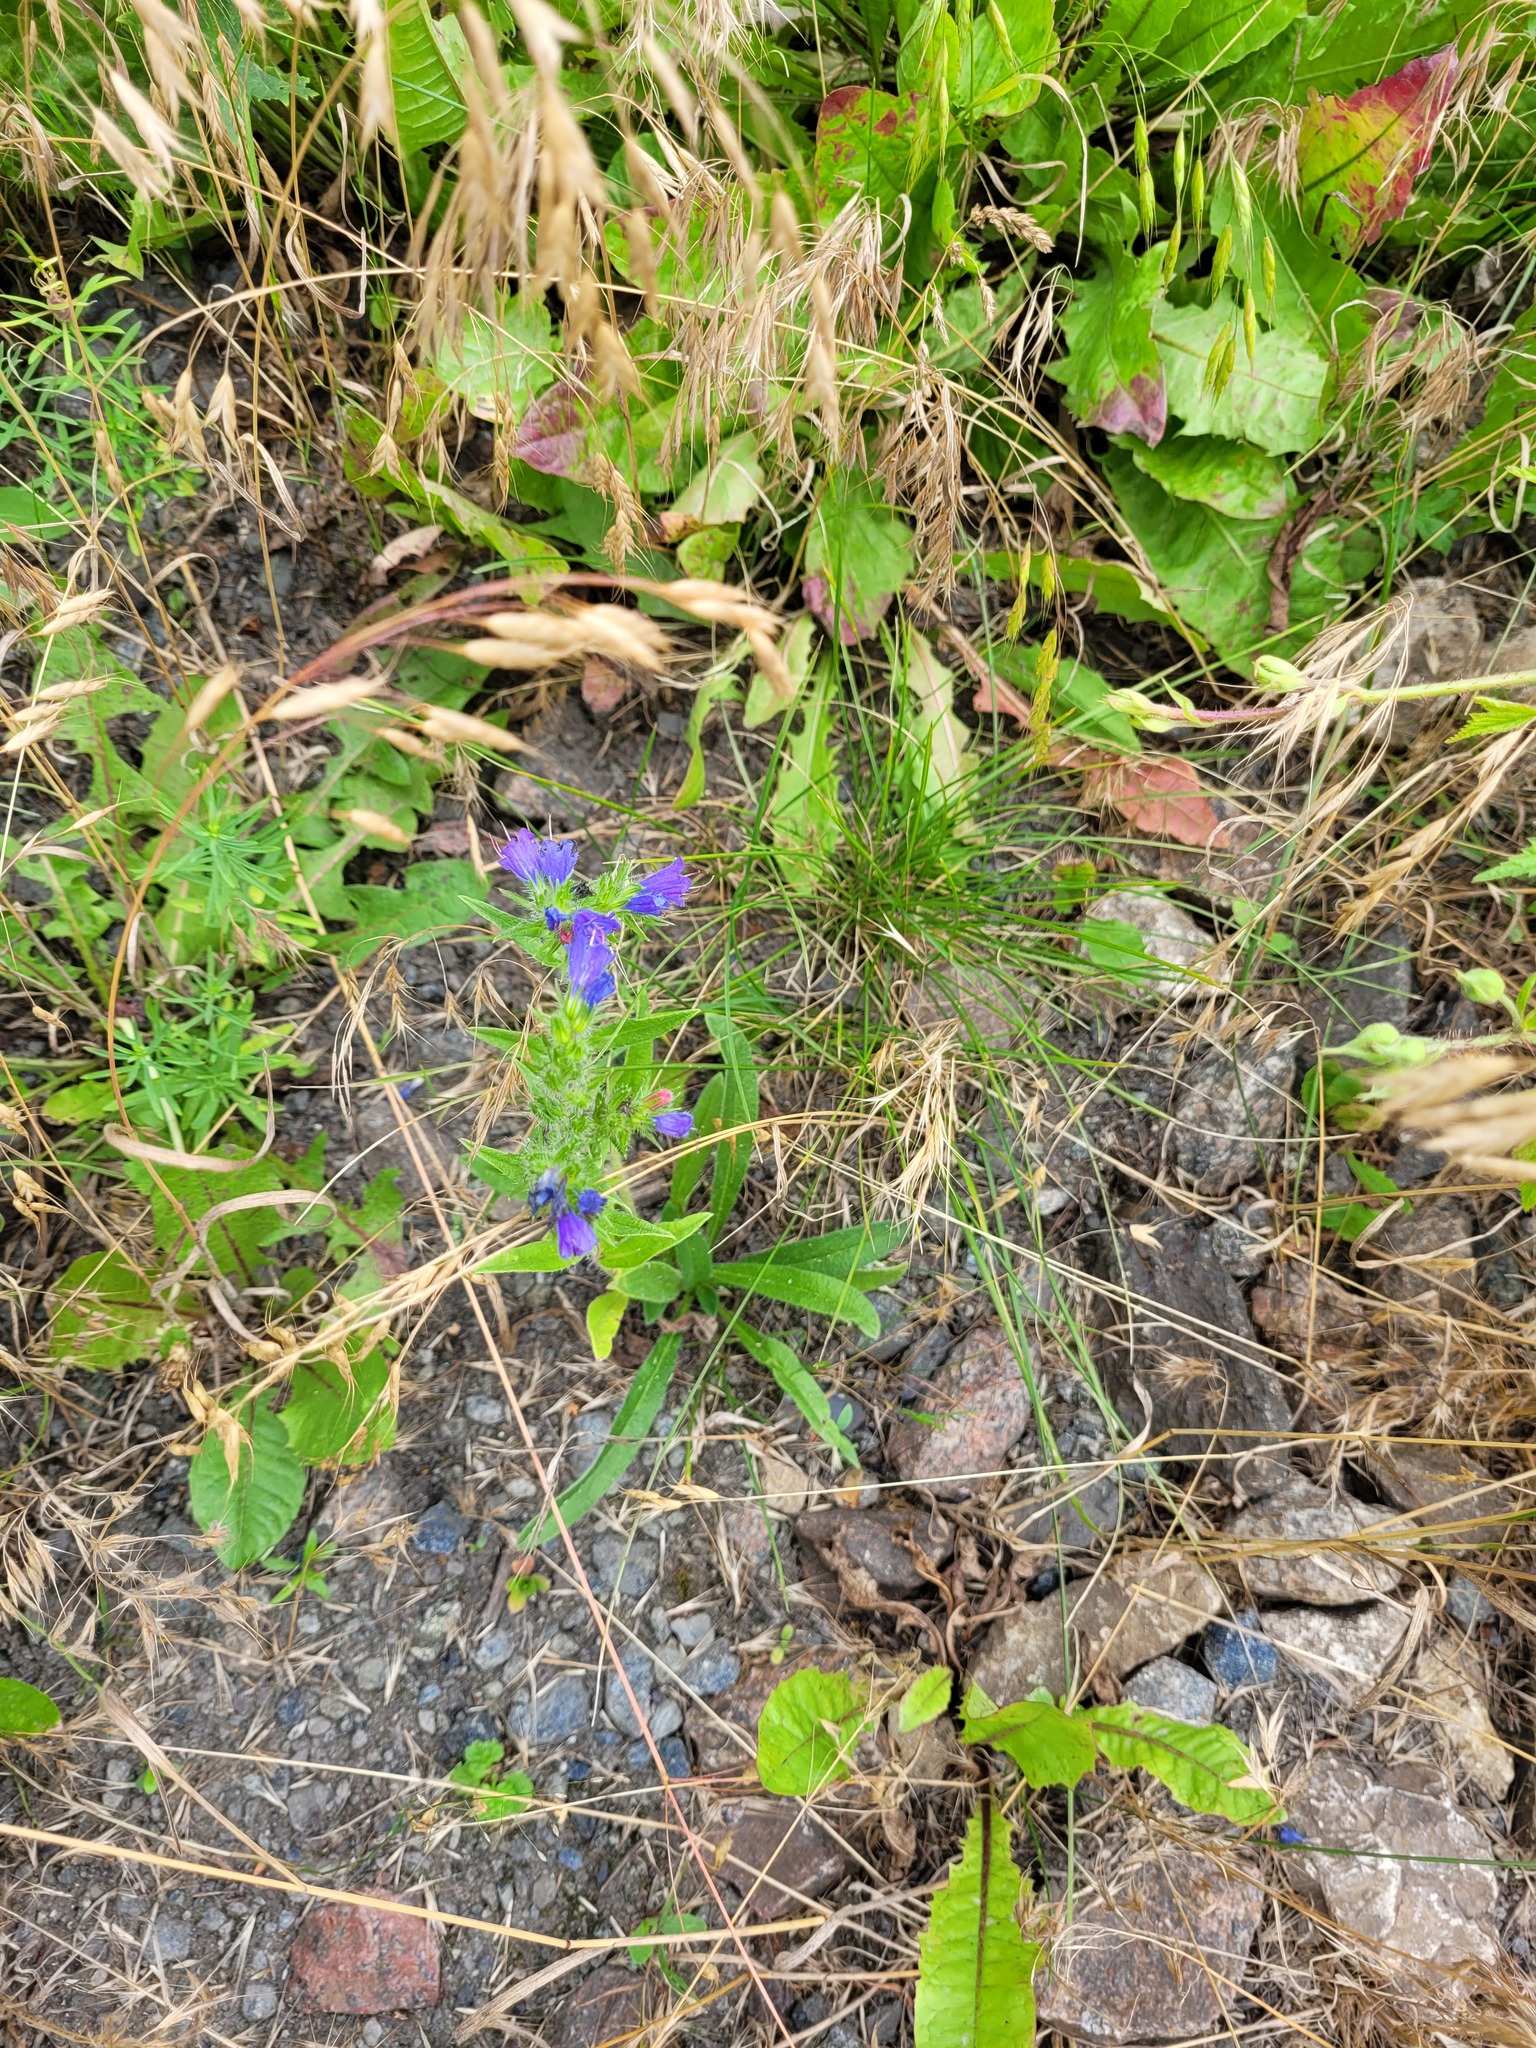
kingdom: Plantae
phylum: Tracheophyta
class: Magnoliopsida
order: Boraginales
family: Boraginaceae
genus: Echium
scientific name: Echium vulgare
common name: Common viper's bugloss
